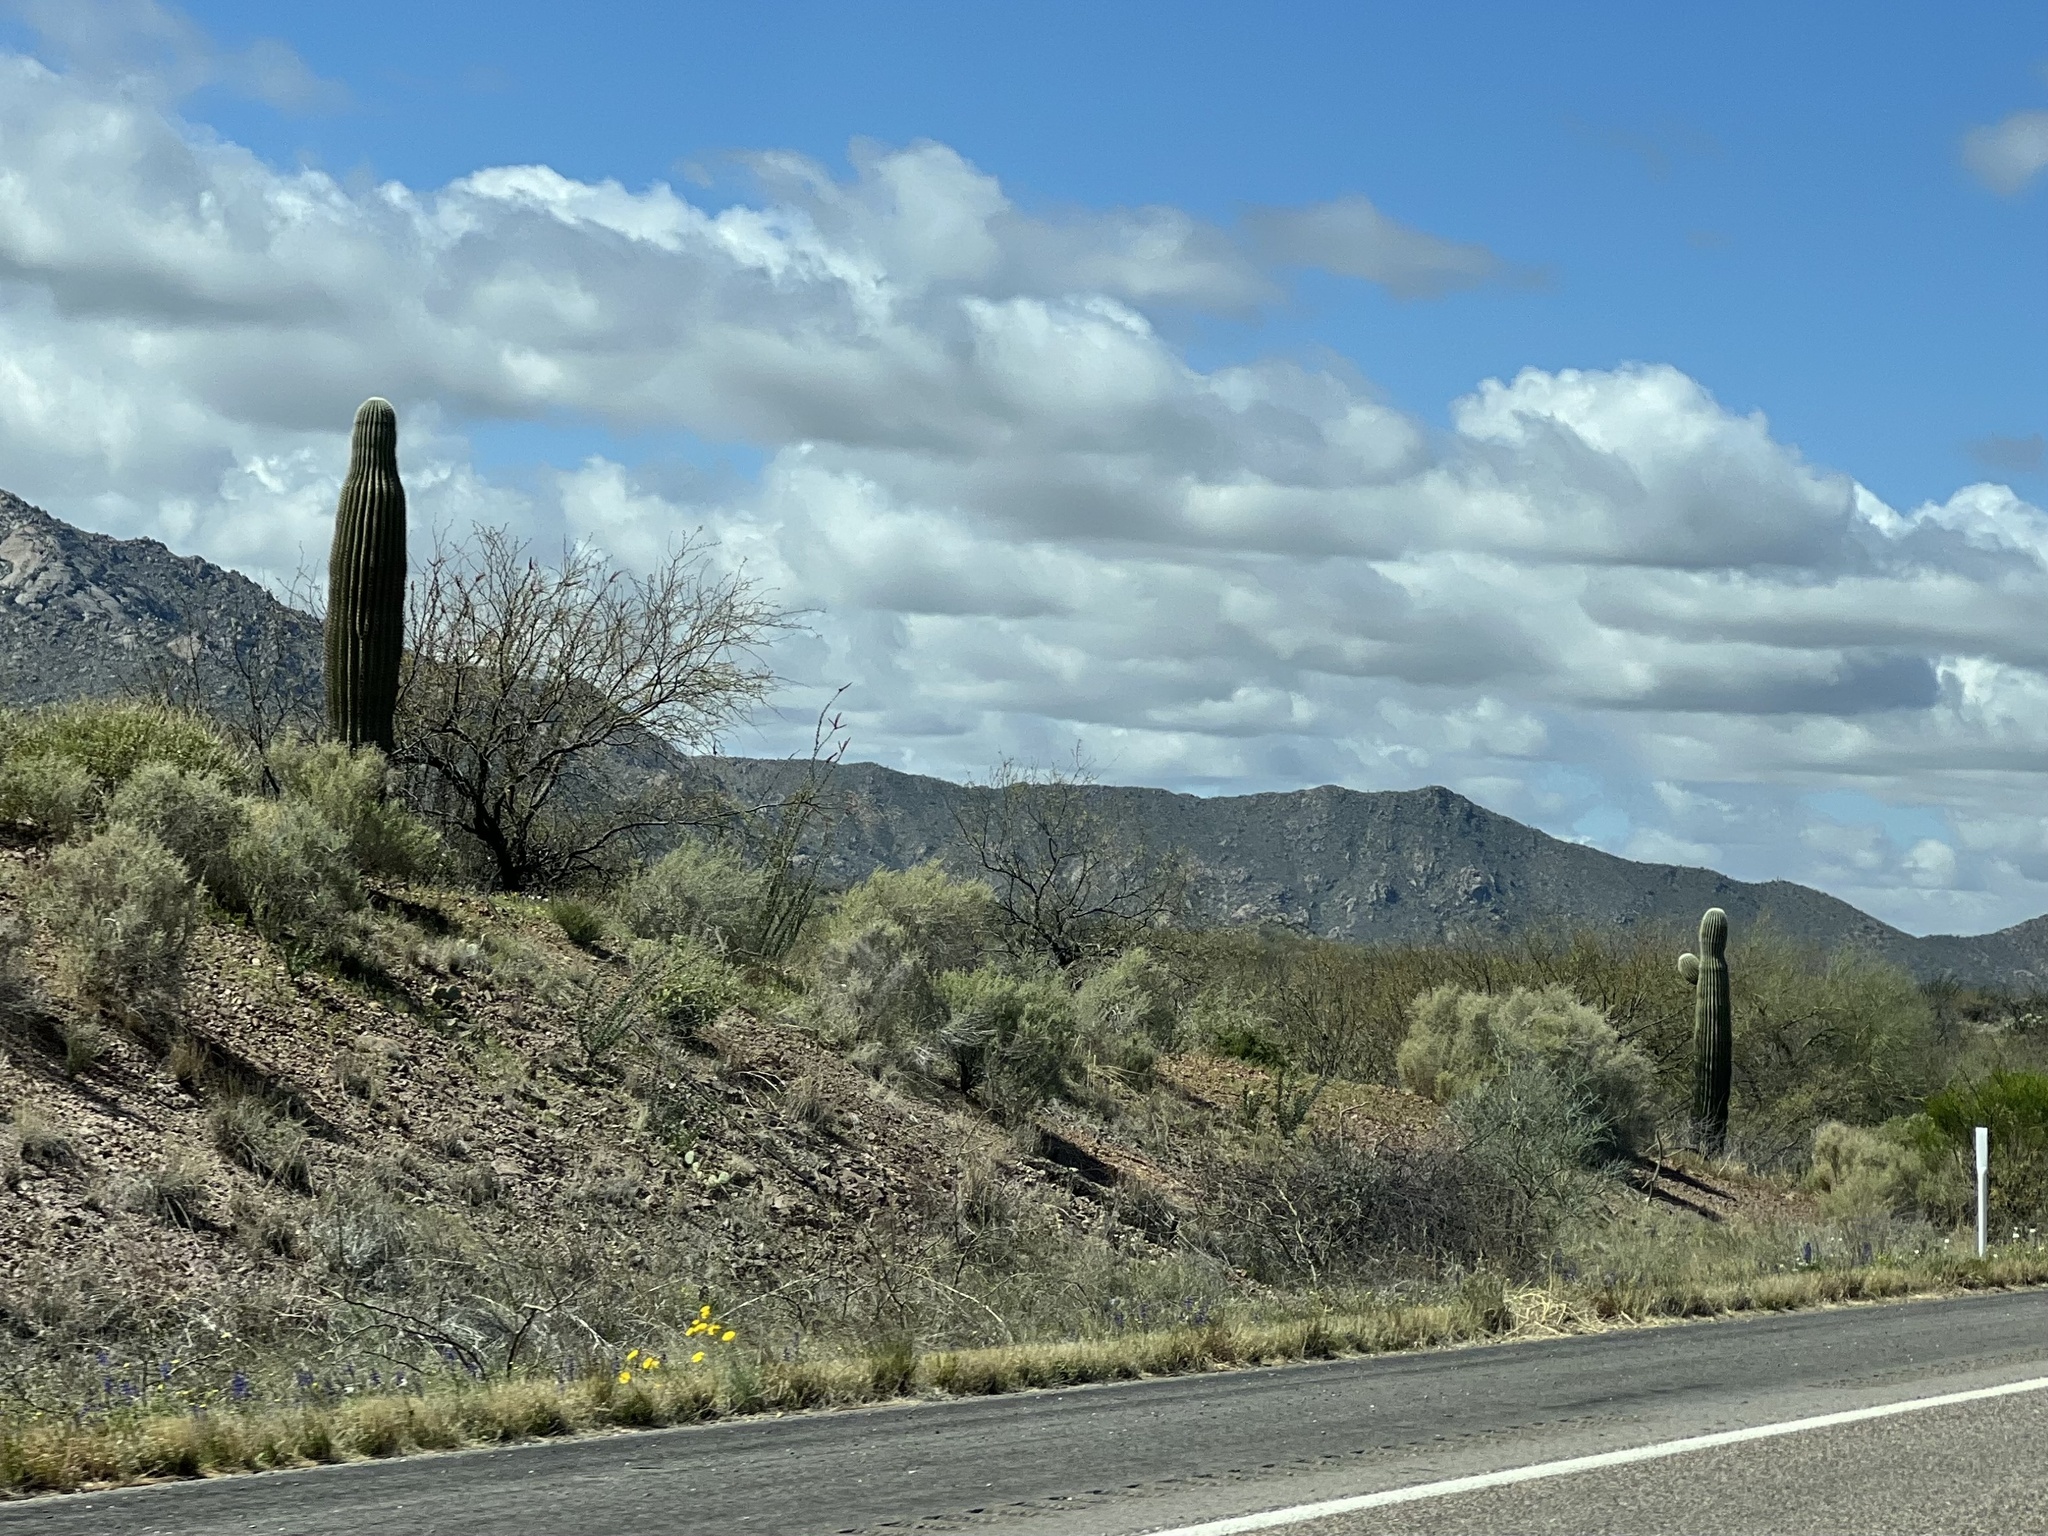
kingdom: Plantae
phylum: Tracheophyta
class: Magnoliopsida
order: Caryophyllales
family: Cactaceae
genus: Carnegiea
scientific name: Carnegiea gigantea
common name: Saguaro
